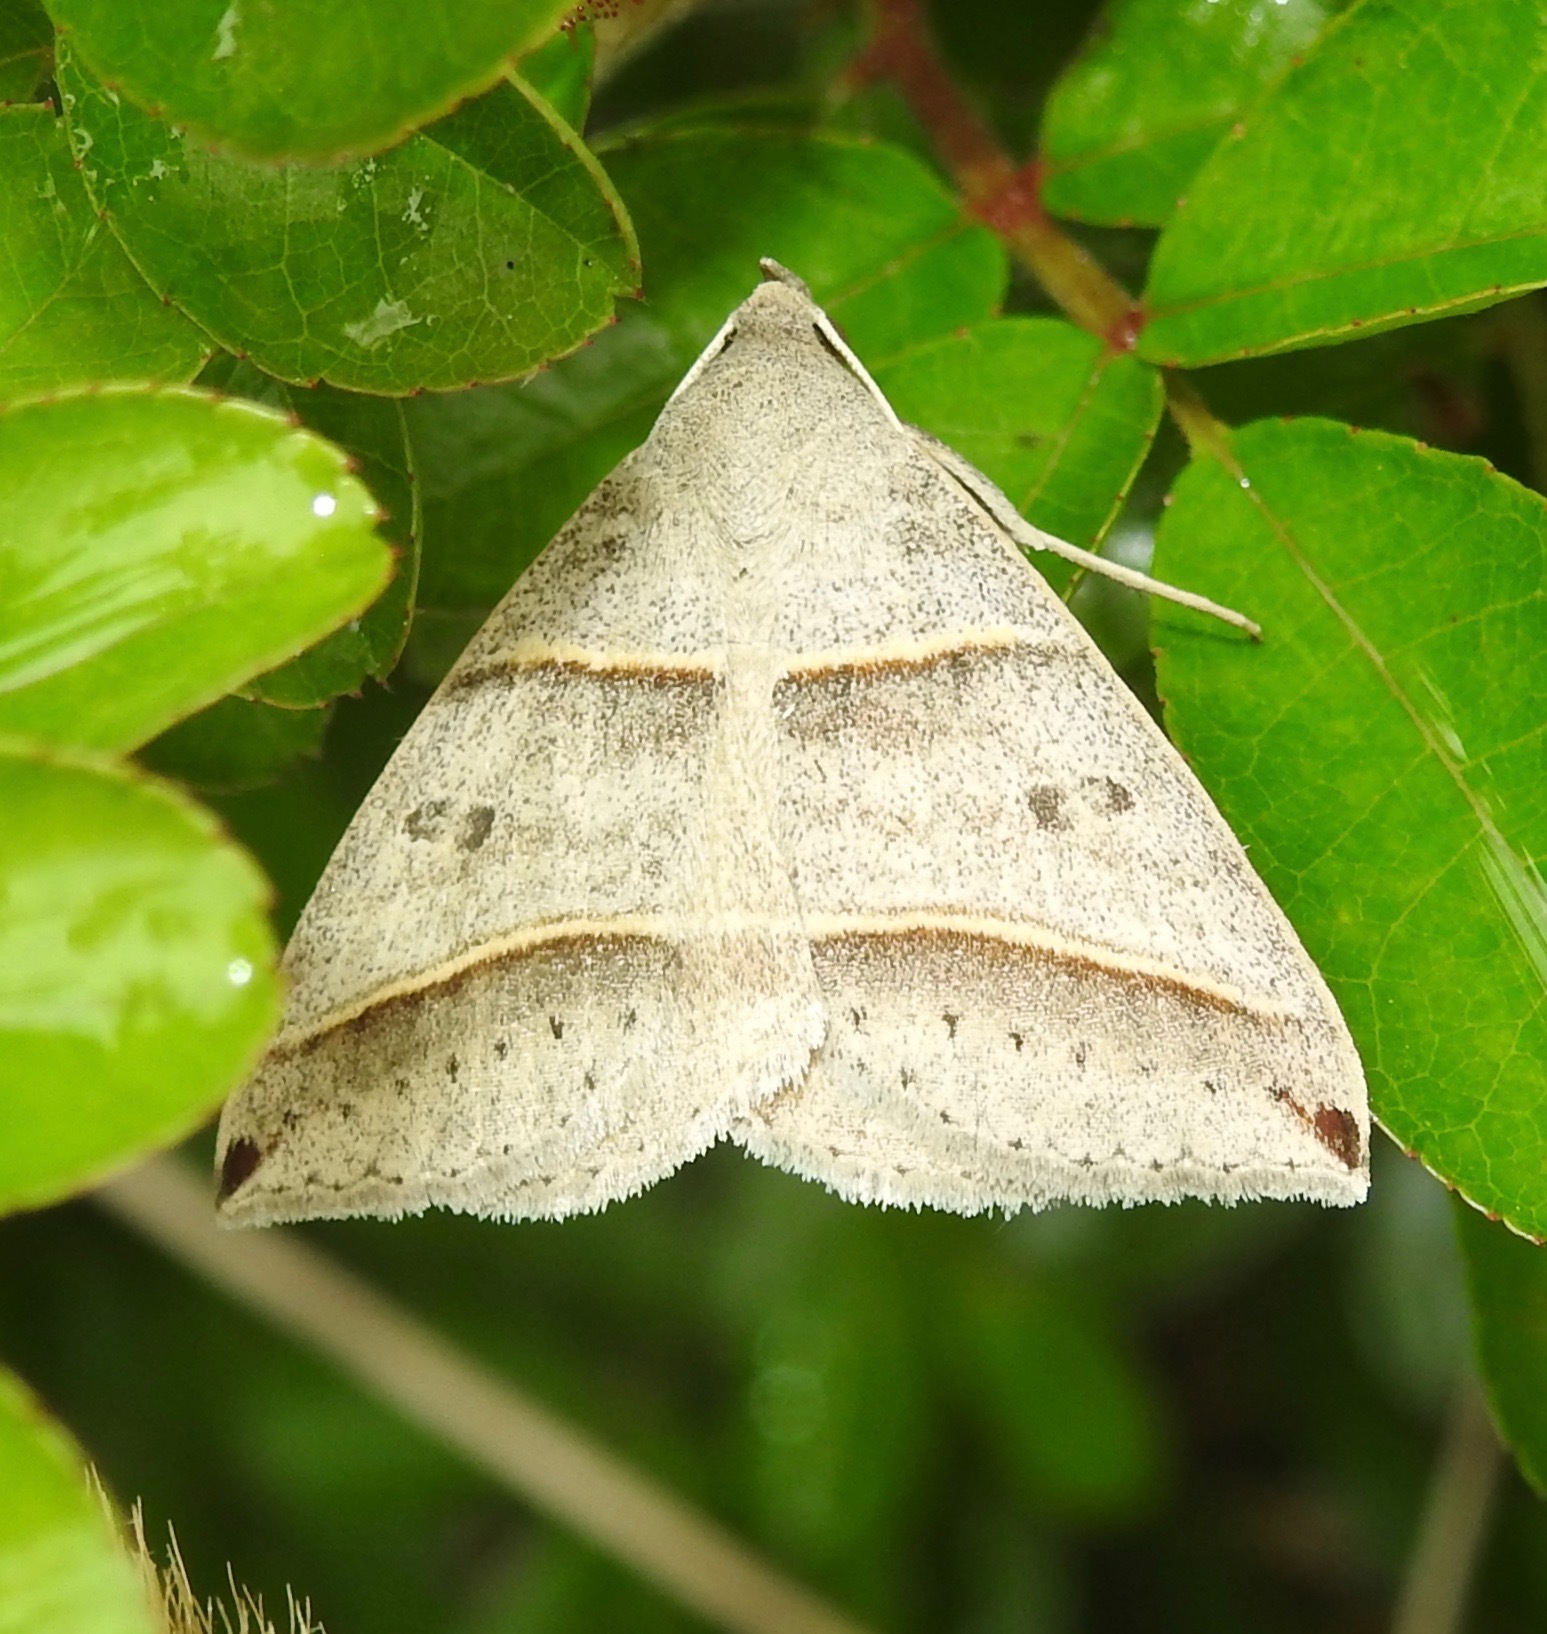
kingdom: Animalia
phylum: Arthropoda
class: Insecta
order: Lepidoptera
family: Erebidae
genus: Ptichodis
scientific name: Ptichodis vinculum
